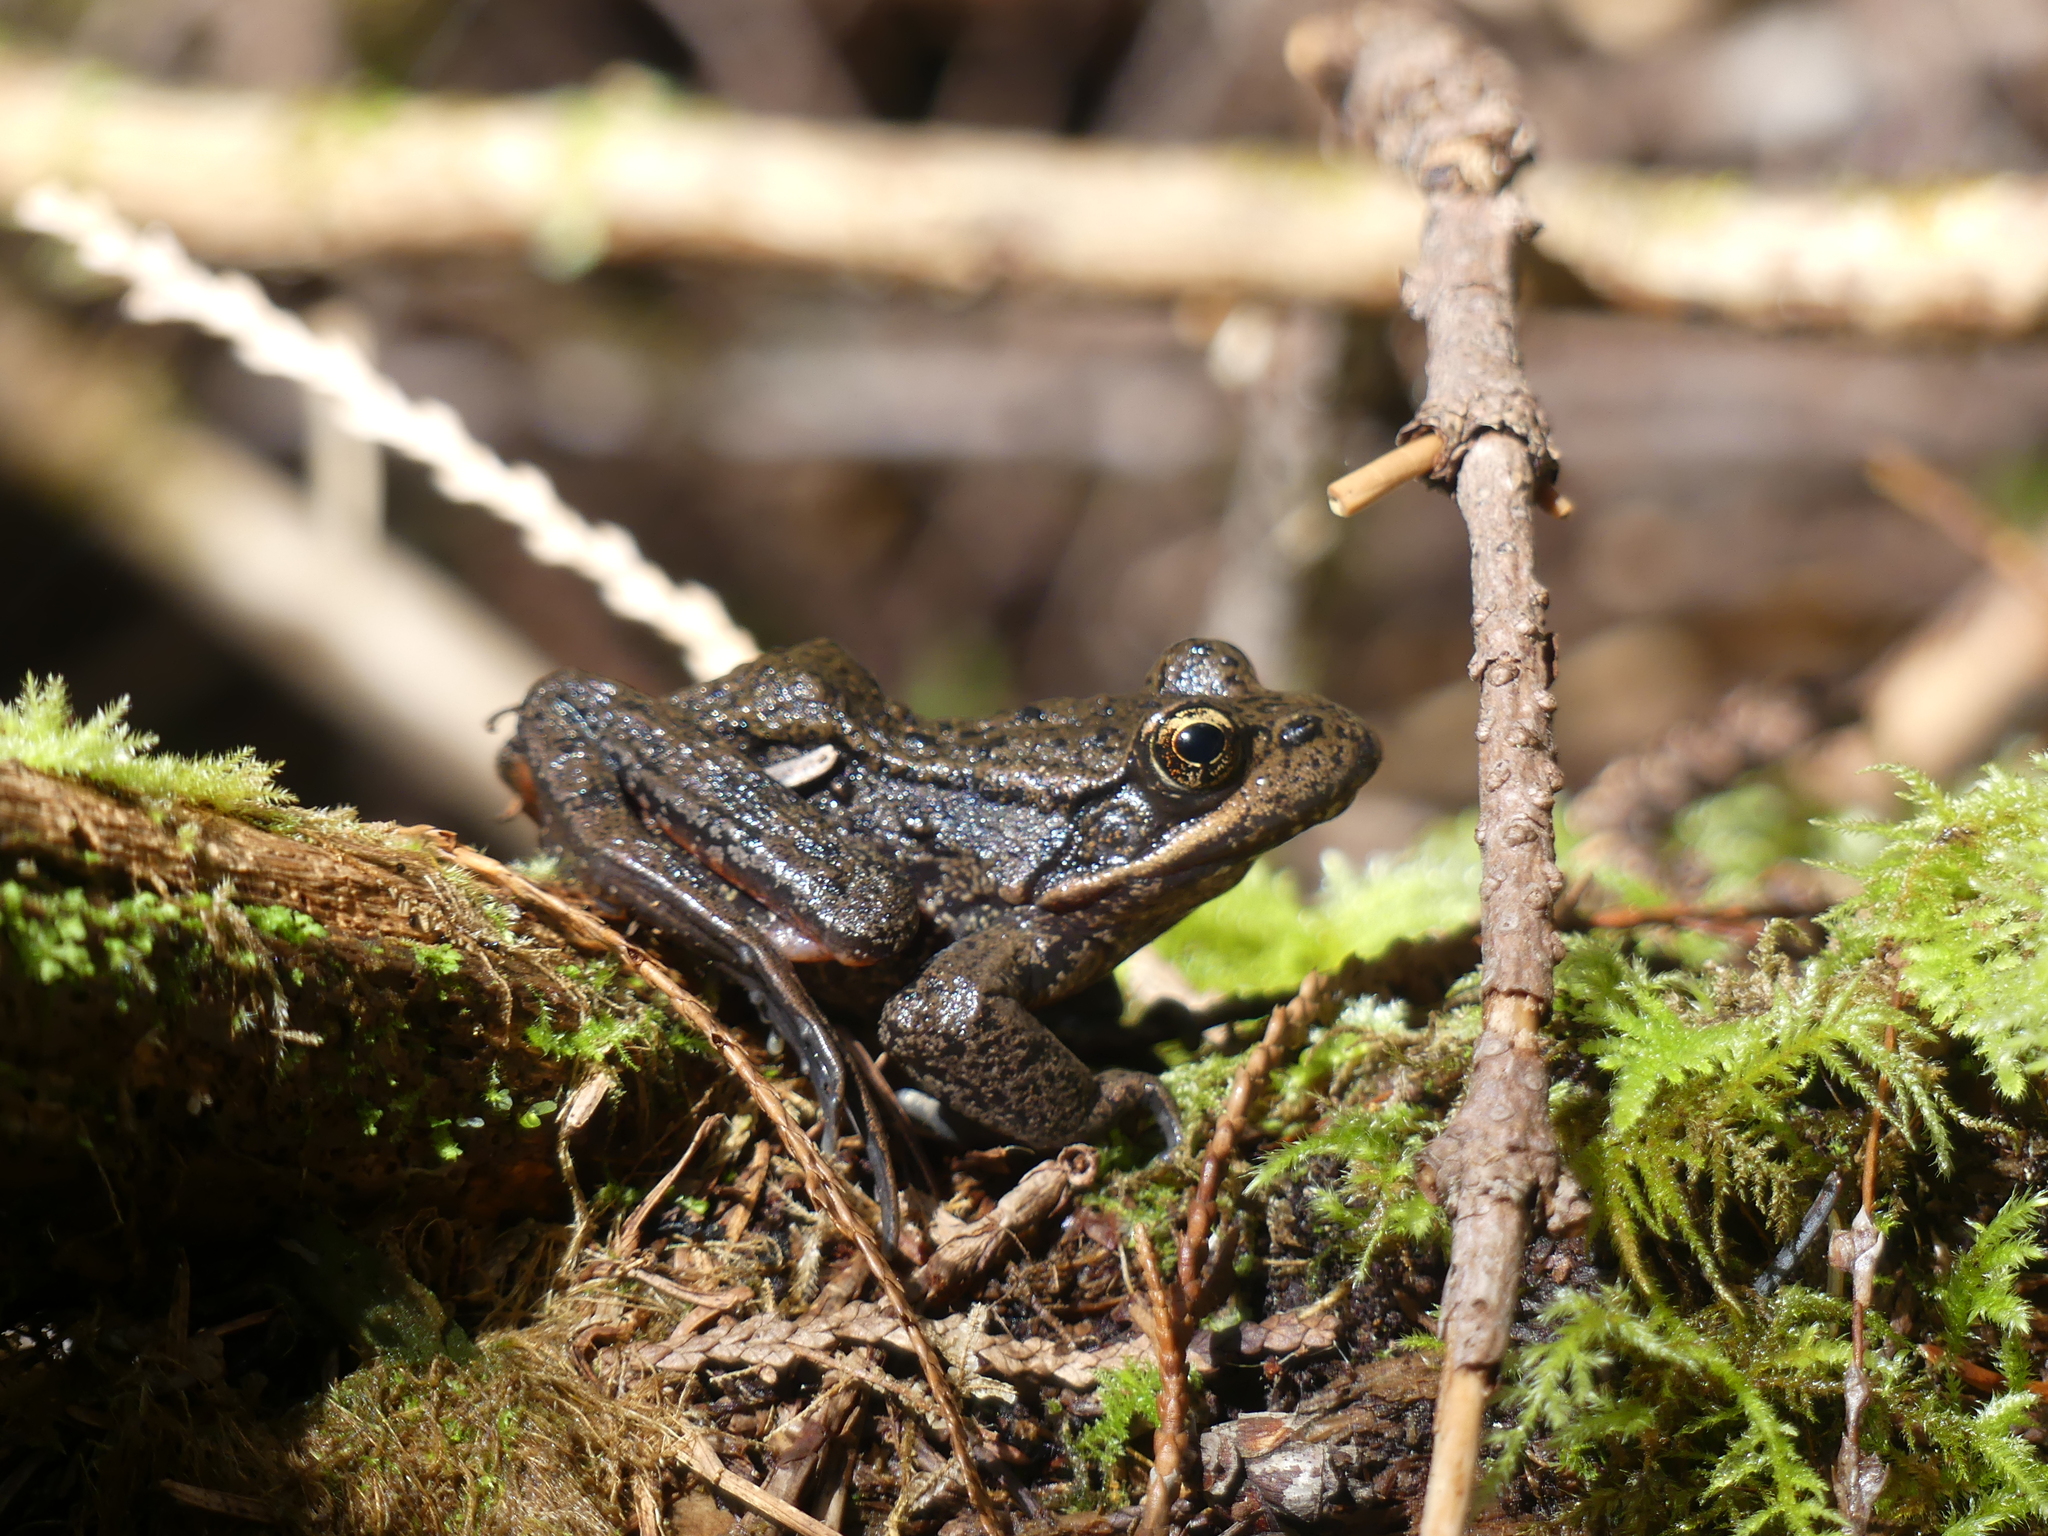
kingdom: Animalia
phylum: Chordata
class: Amphibia
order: Anura
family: Ranidae
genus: Rana
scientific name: Rana aurora
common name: Red-legged frog
